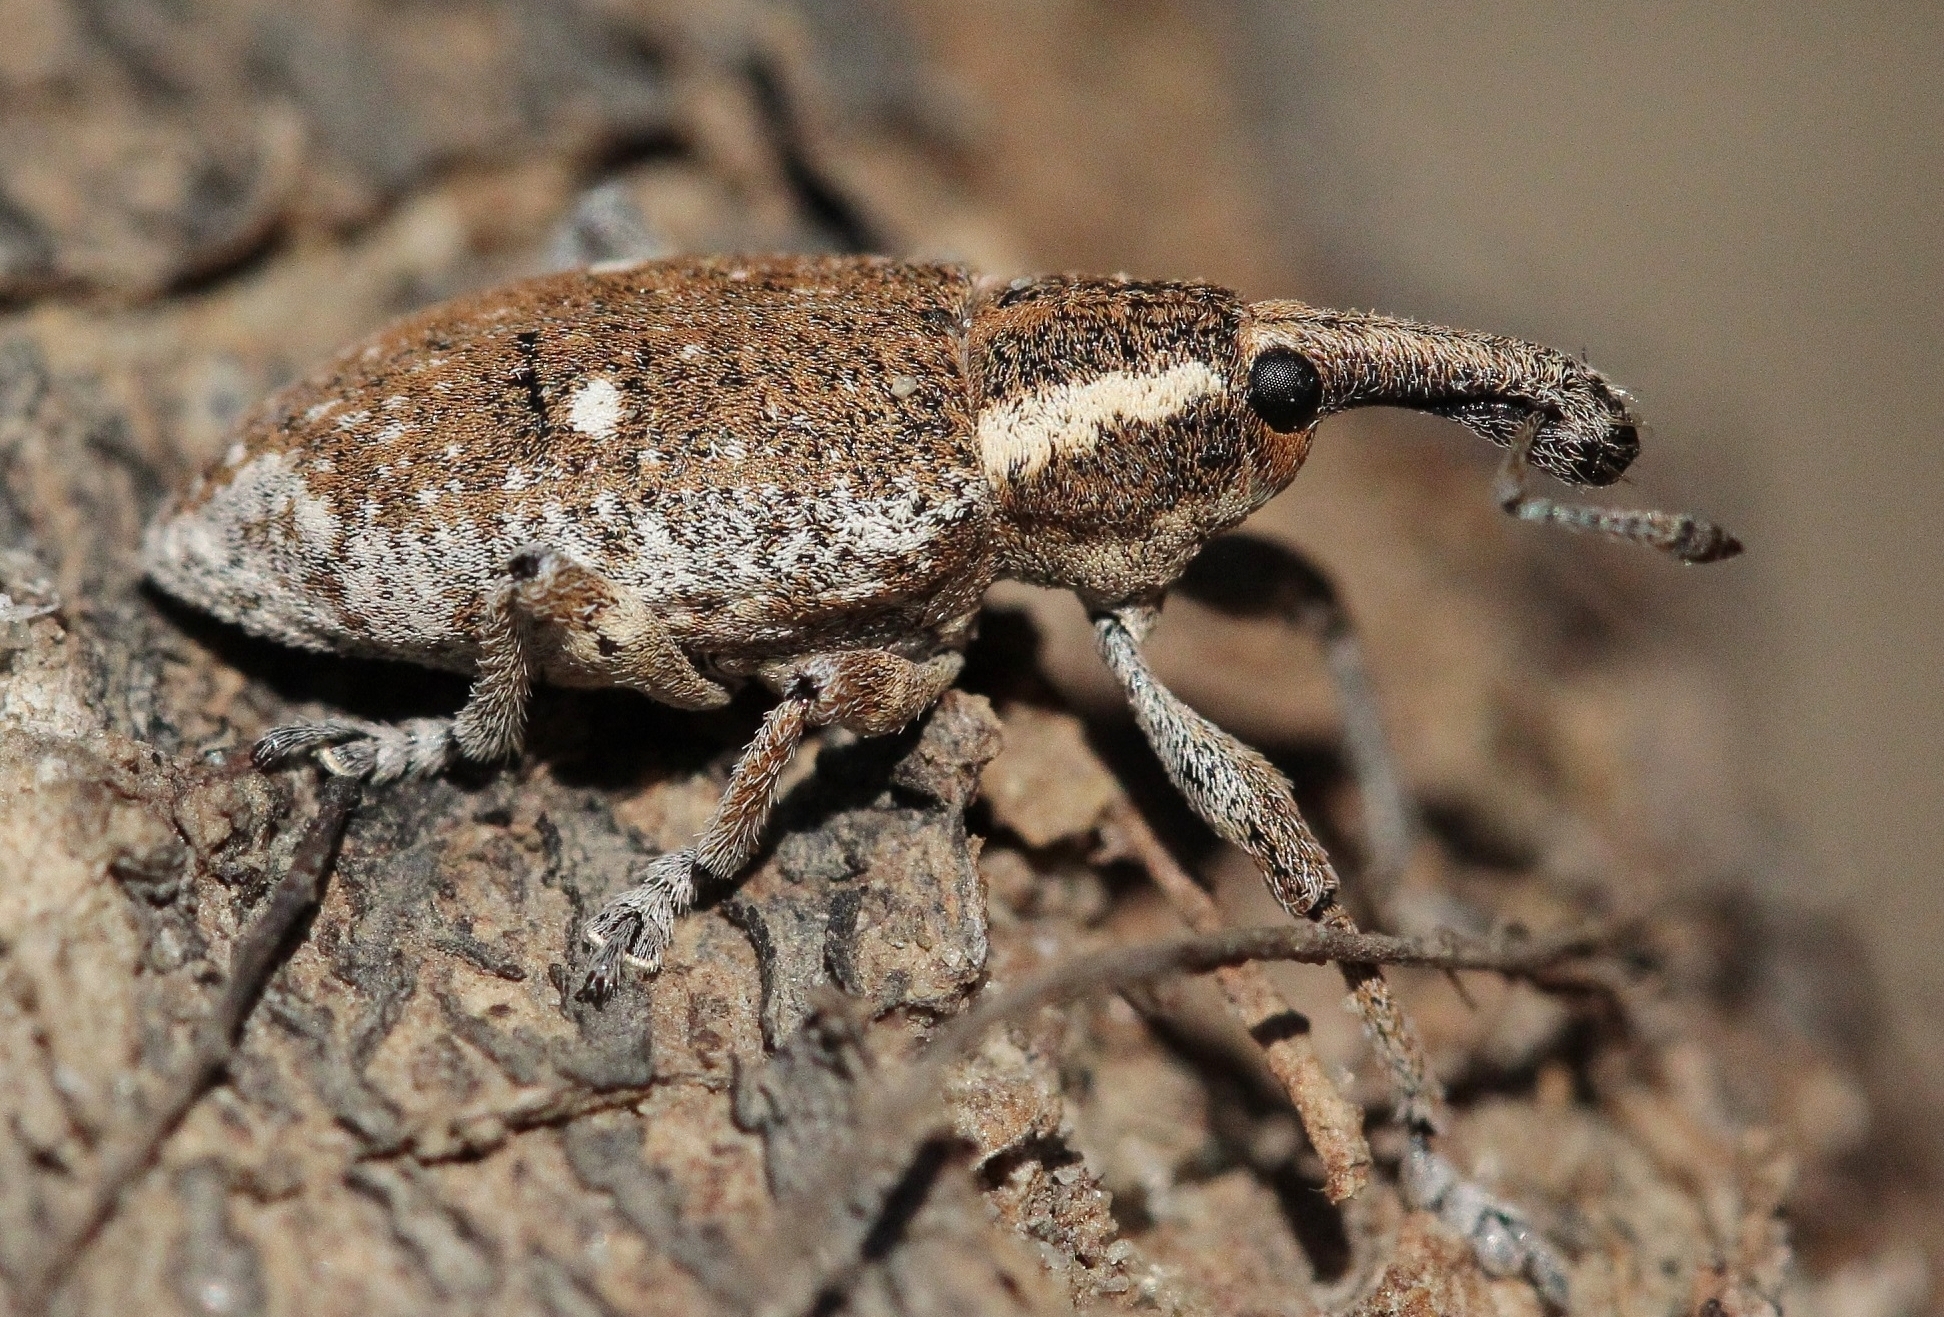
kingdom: Animalia
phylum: Arthropoda
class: Insecta
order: Coleoptera
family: Curculionidae
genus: Lepyrus
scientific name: Lepyrus palustris
